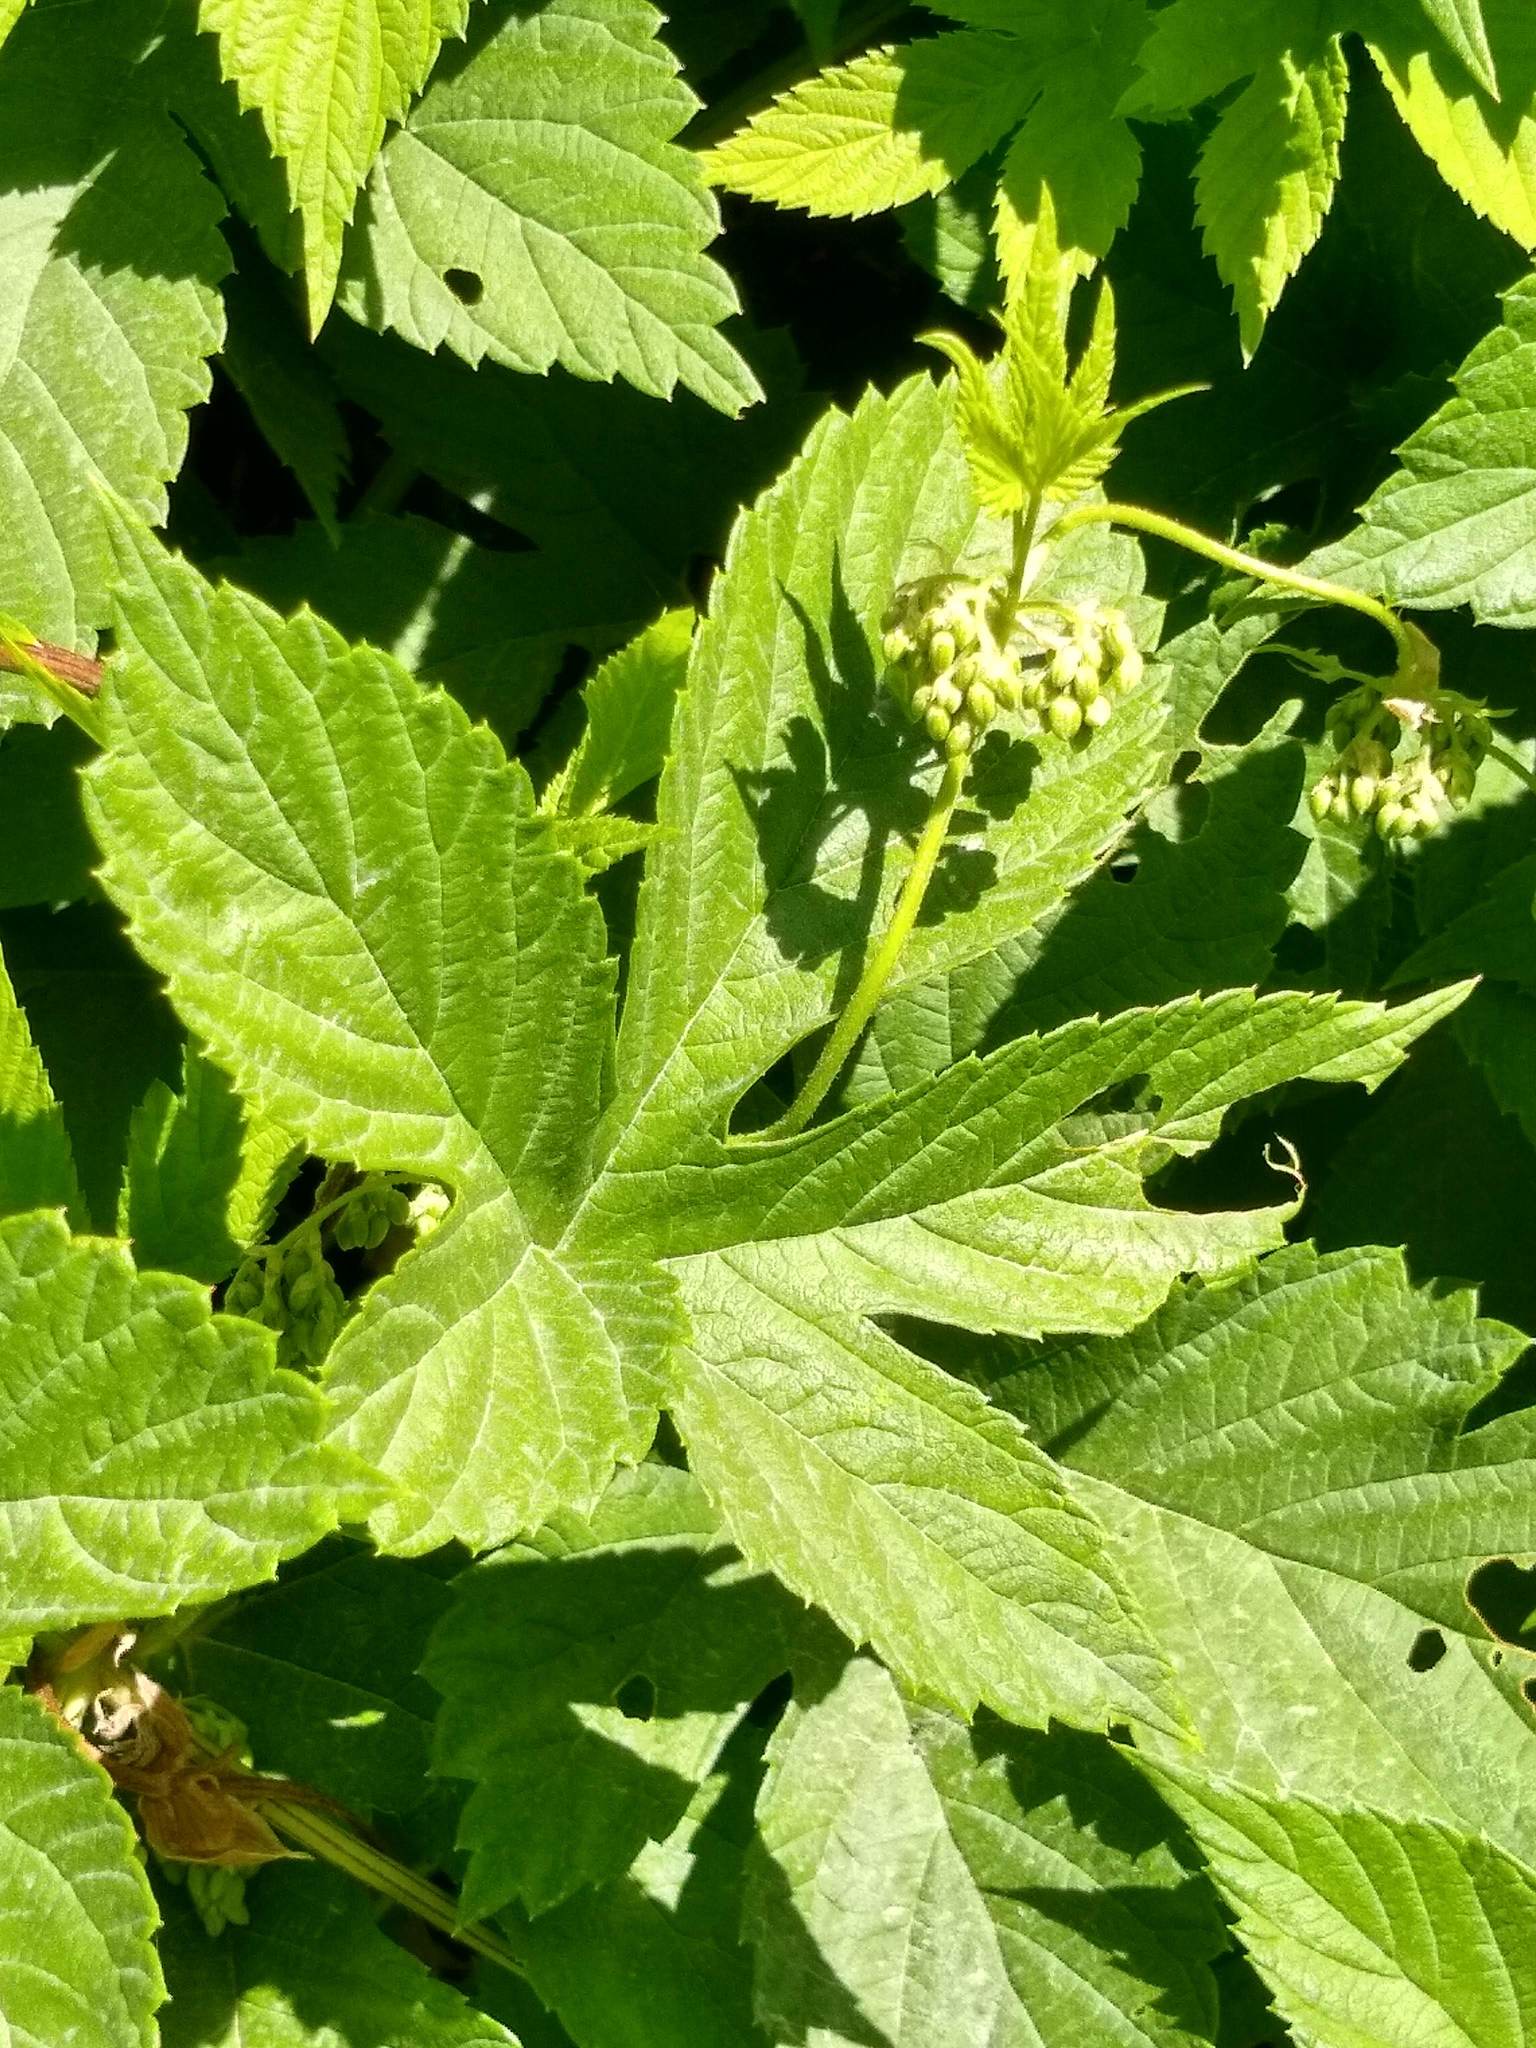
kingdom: Plantae
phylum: Tracheophyta
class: Magnoliopsida
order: Rosales
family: Cannabaceae
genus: Humulus
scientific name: Humulus lupulus
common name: Hop
